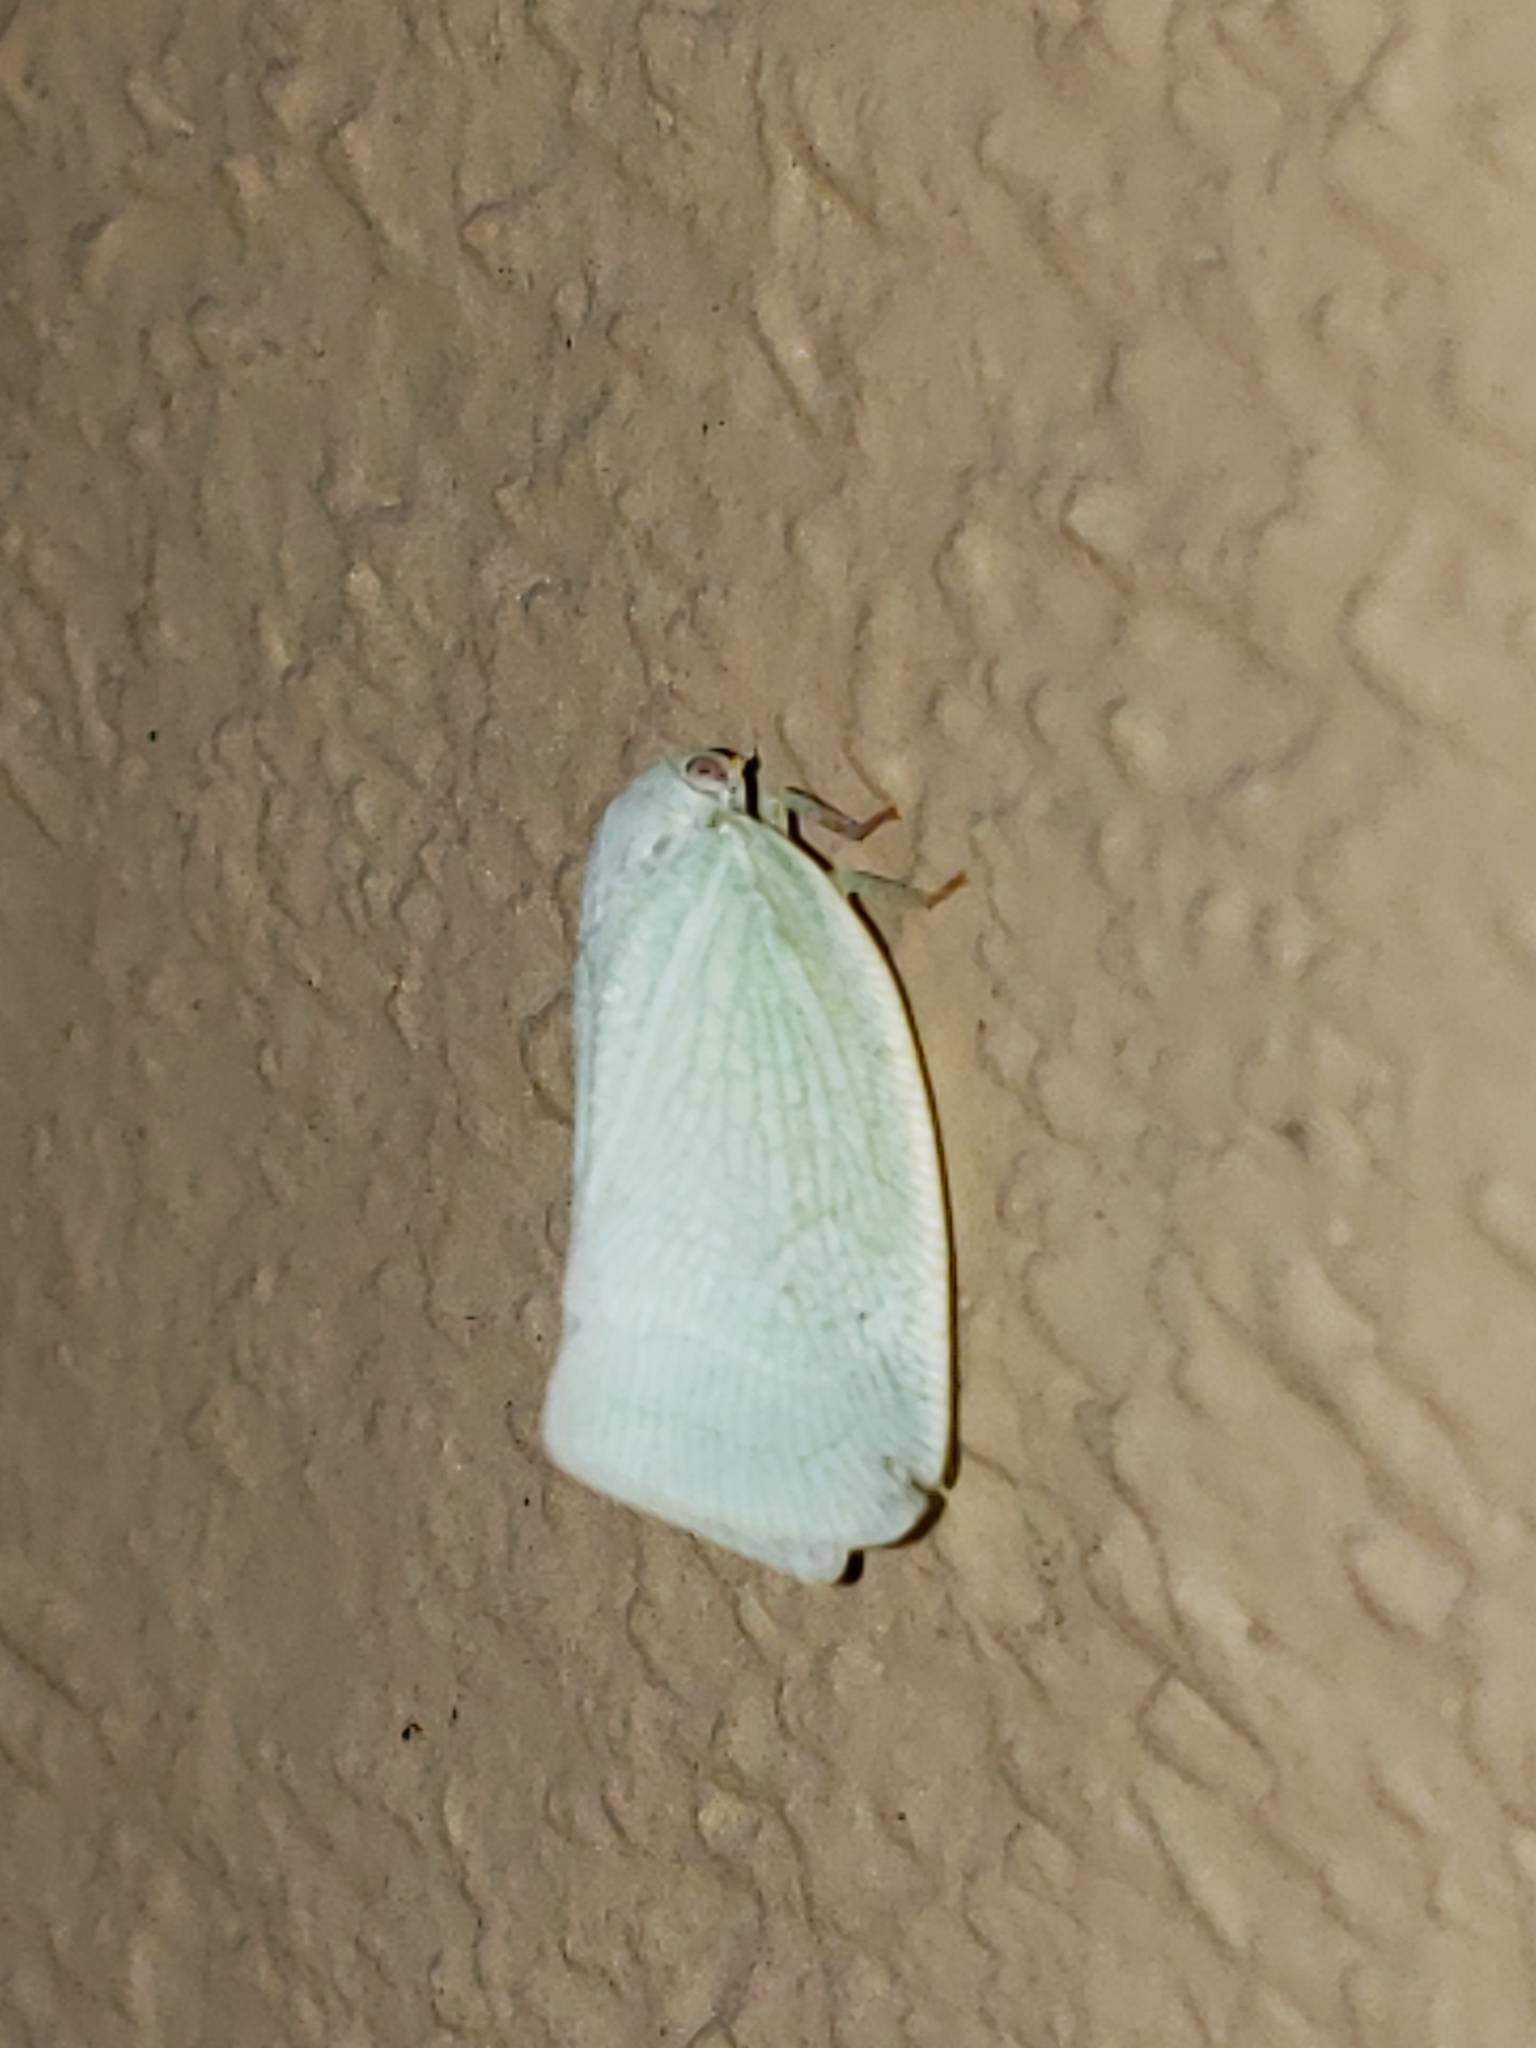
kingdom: Animalia
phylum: Arthropoda
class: Insecta
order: Hemiptera
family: Flatidae
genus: Flatormenis
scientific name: Flatormenis proxima
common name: Northern flatid planthopper
